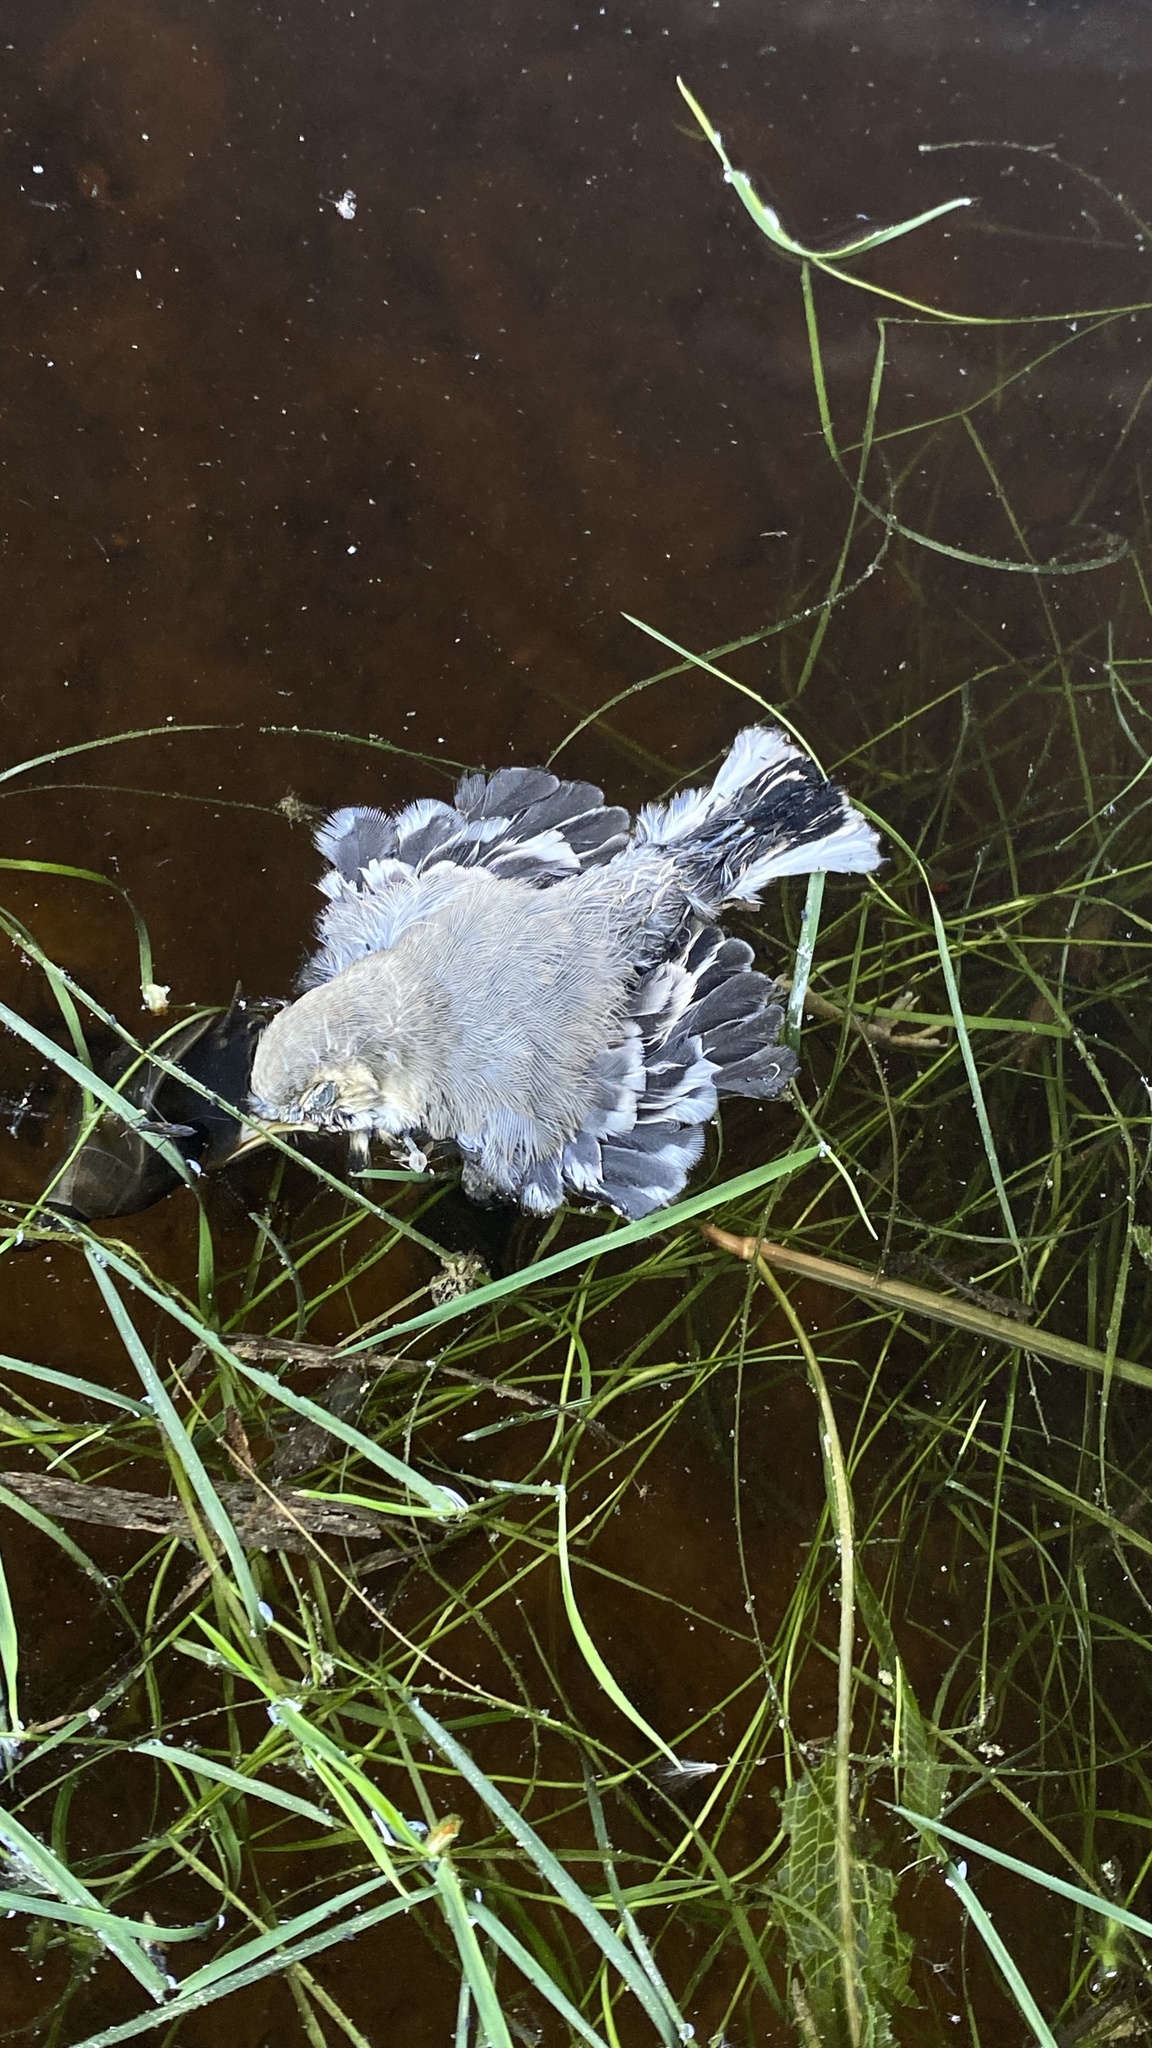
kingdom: Animalia
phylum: Chordata
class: Aves
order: Passeriformes
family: Motacillidae
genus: Motacilla
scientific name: Motacilla alba
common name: White wagtail
